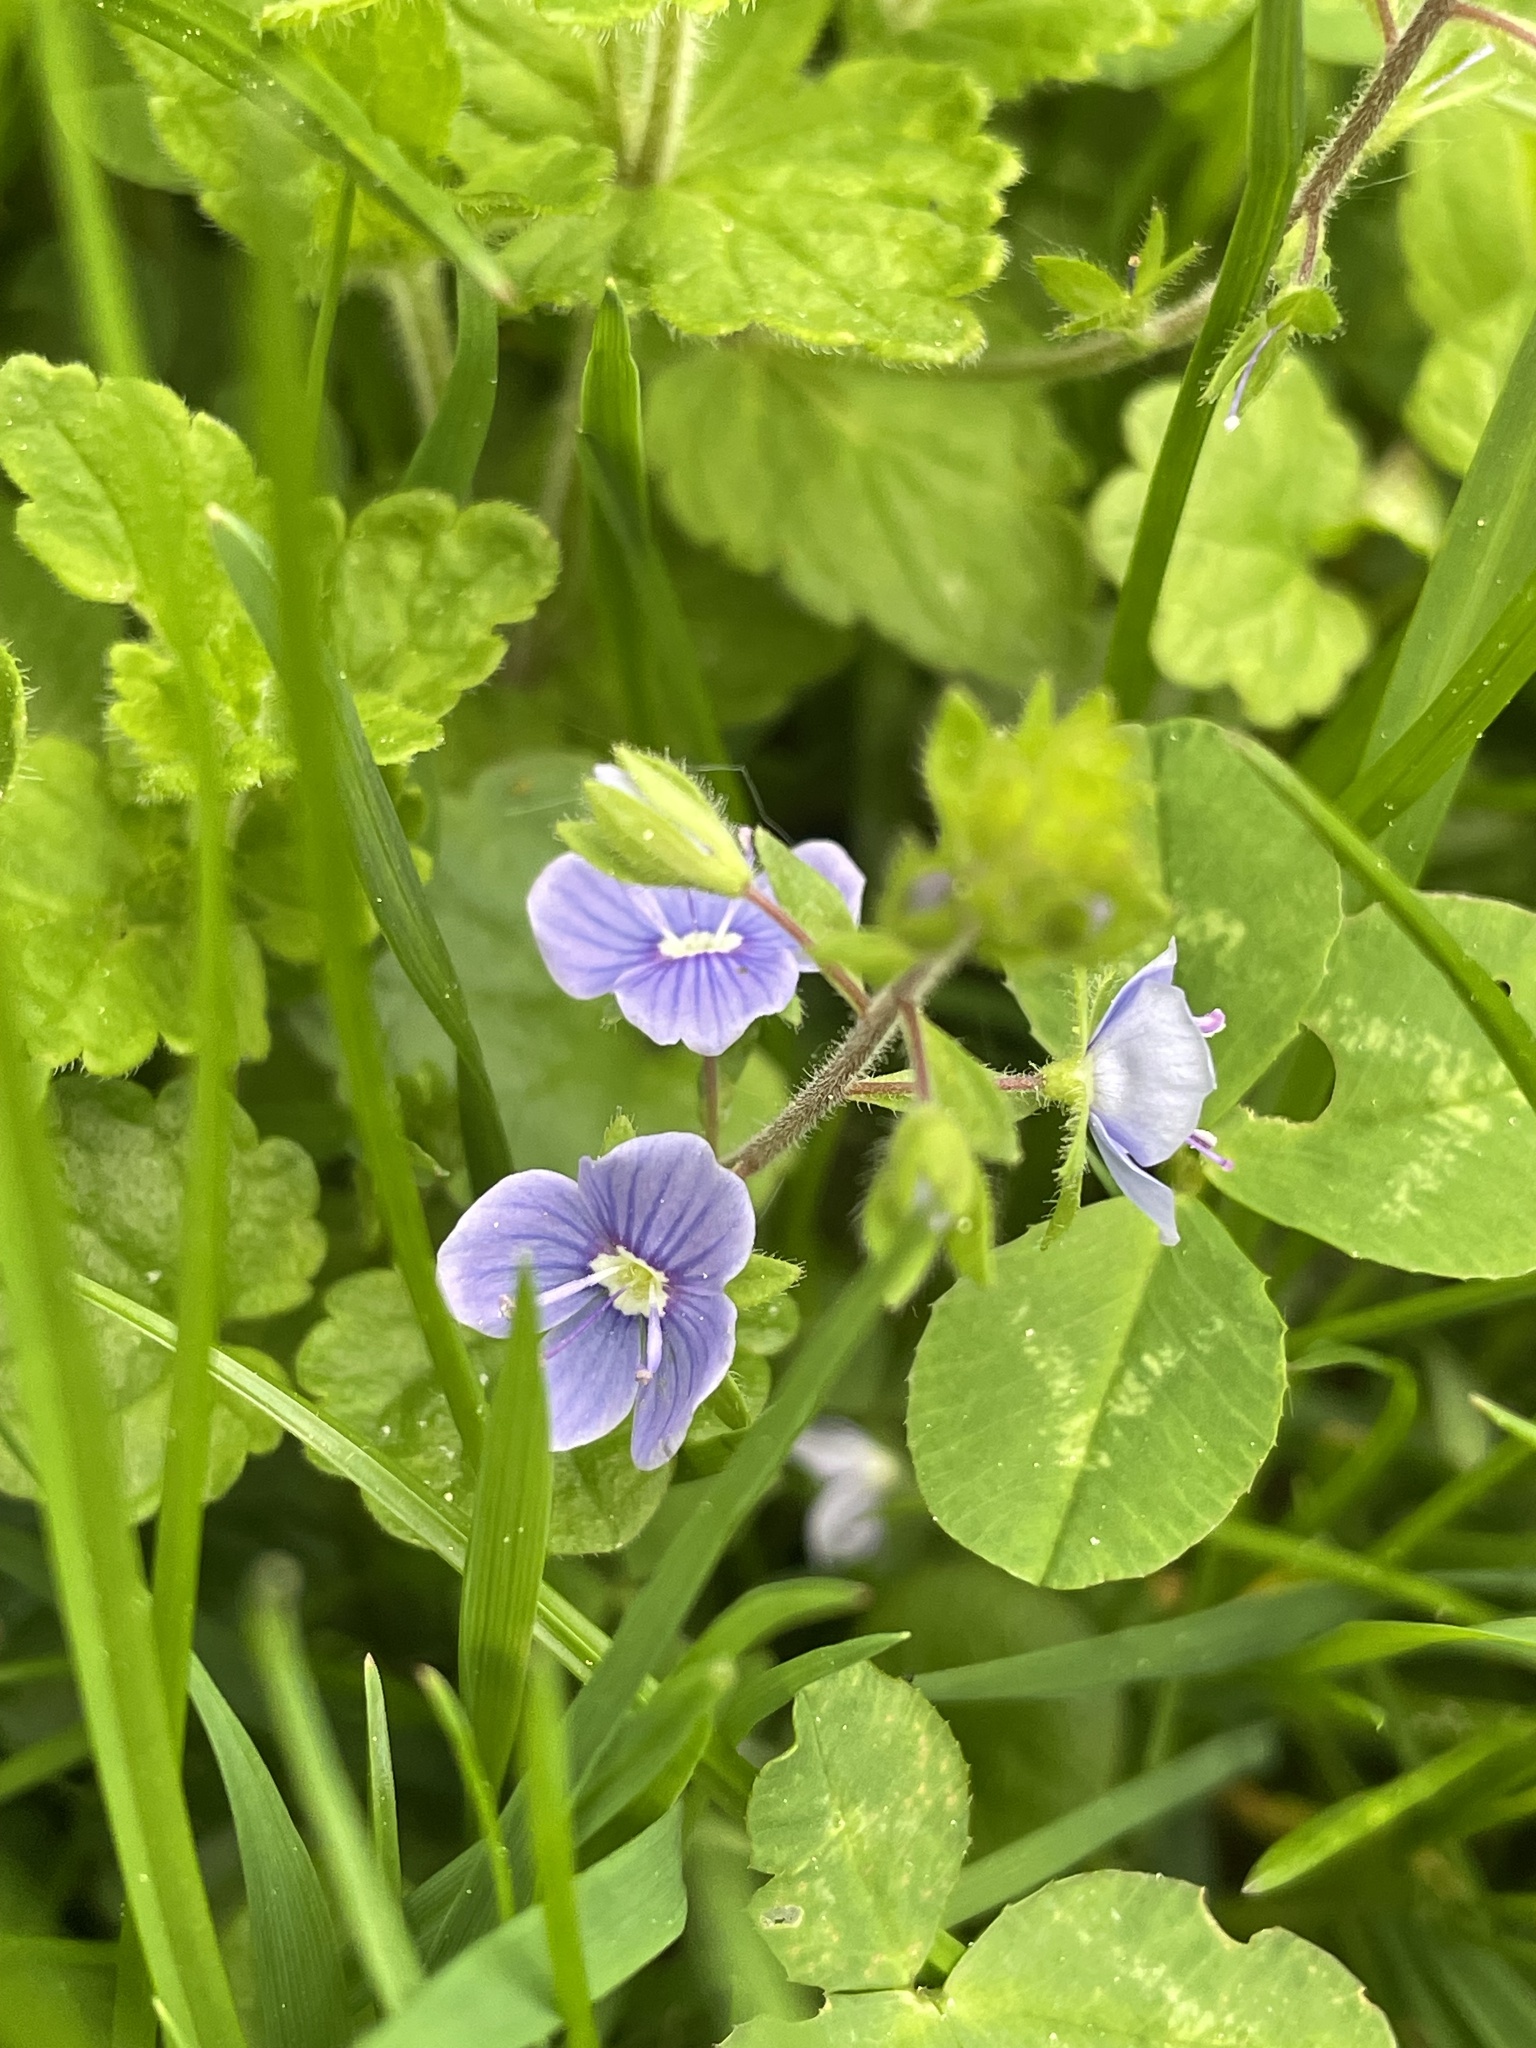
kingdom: Plantae
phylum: Tracheophyta
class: Magnoliopsida
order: Lamiales
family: Plantaginaceae
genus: Veronica
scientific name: Veronica chamaedrys
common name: Germander speedwell
